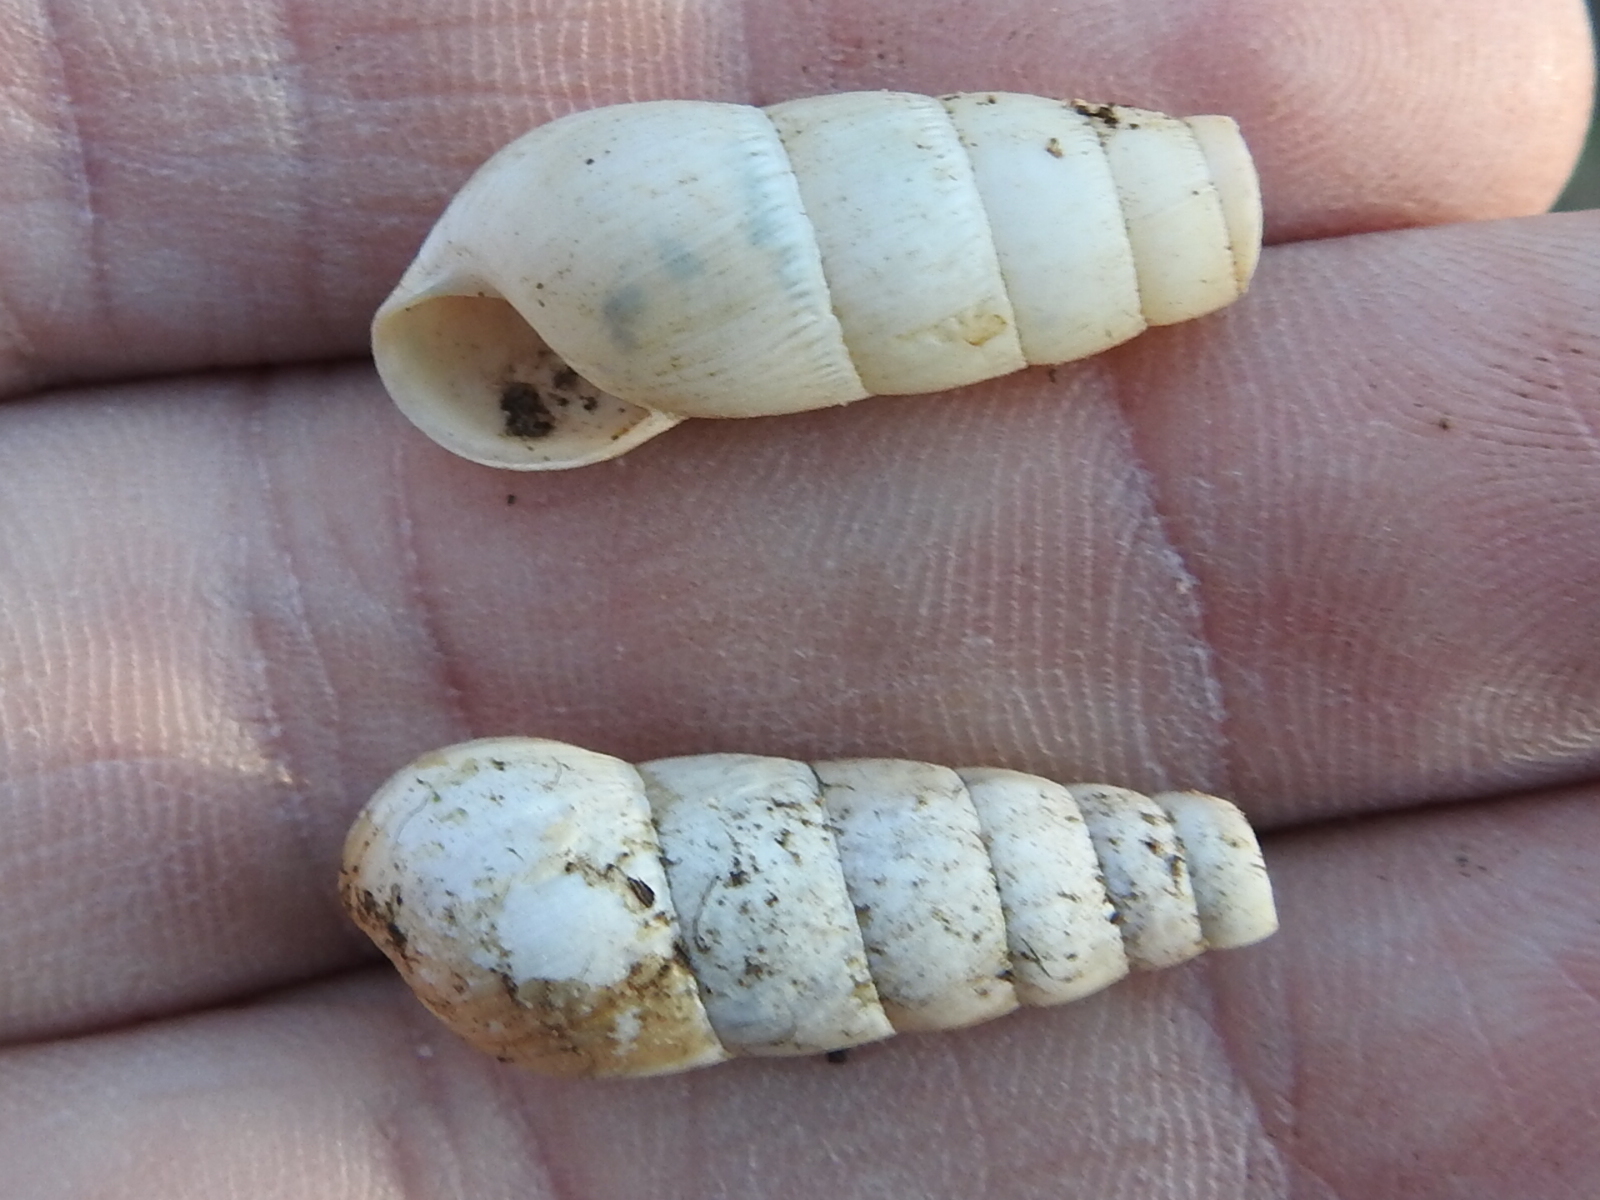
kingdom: Animalia
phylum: Mollusca
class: Gastropoda
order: Stylommatophora
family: Achatinidae
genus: Rumina
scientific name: Rumina decollata
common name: Decollate snail
